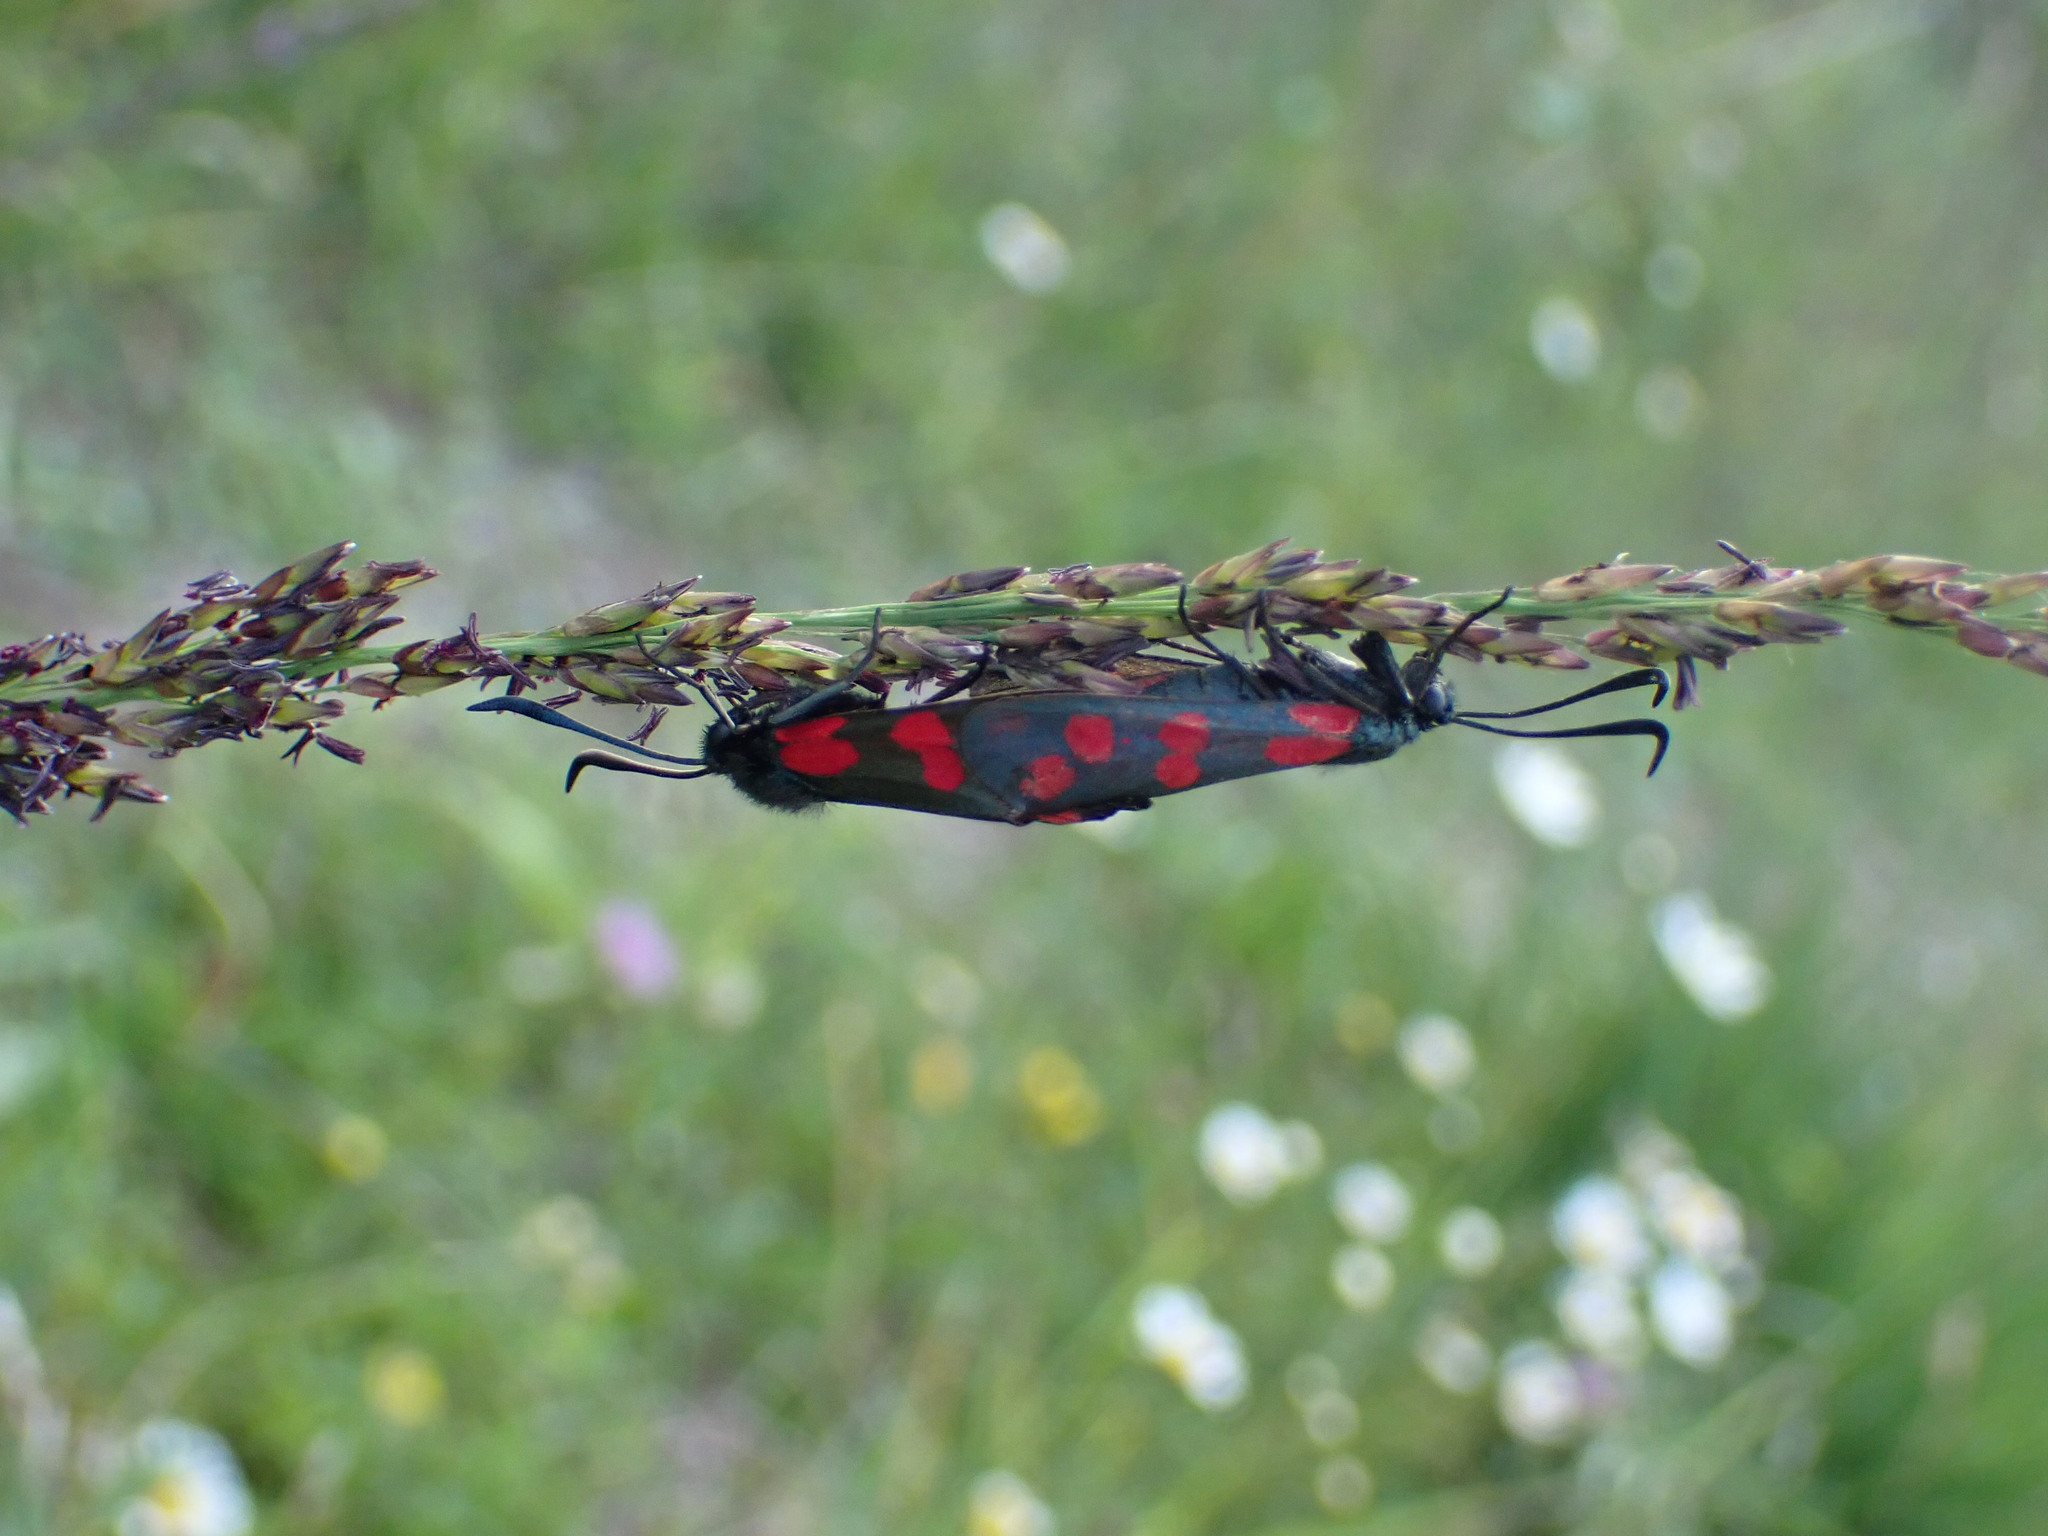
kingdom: Animalia
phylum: Arthropoda
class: Insecta
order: Lepidoptera
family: Zygaenidae
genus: Zygaena
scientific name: Zygaena filipendulae
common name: Six-spot burnet
